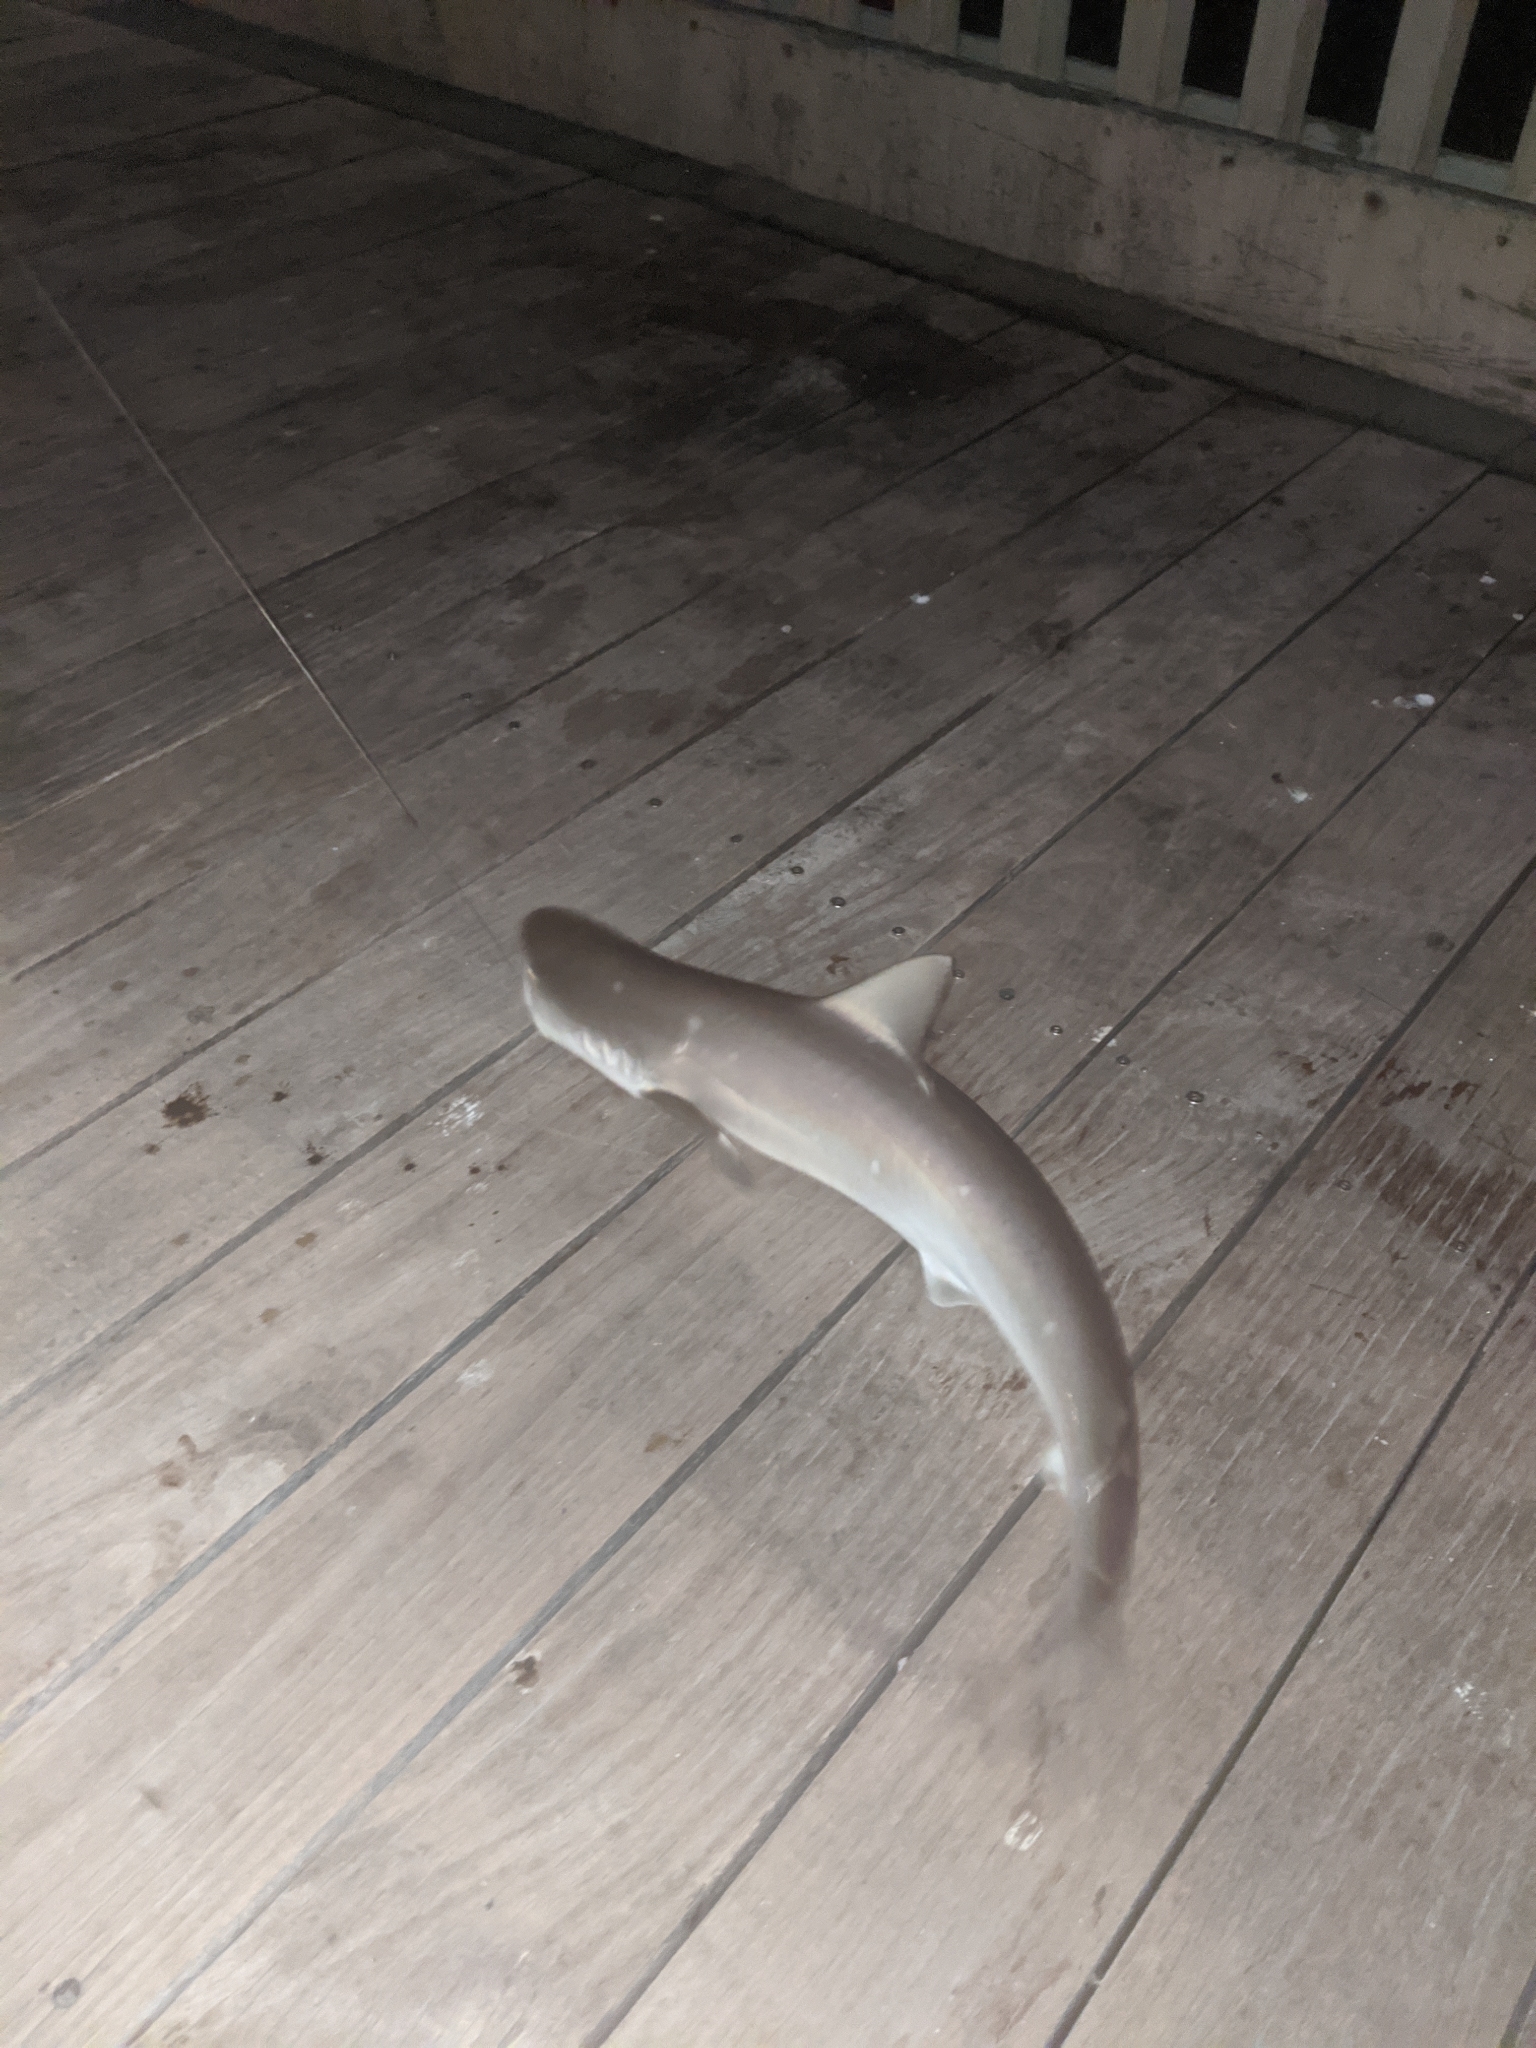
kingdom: Animalia
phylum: Chordata
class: Elasmobranchii
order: Carcharhiniformes
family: Carcharhinidae
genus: Rhizoprionodon
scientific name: Rhizoprionodon terraenovae
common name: Atlantic sharpnose shark
